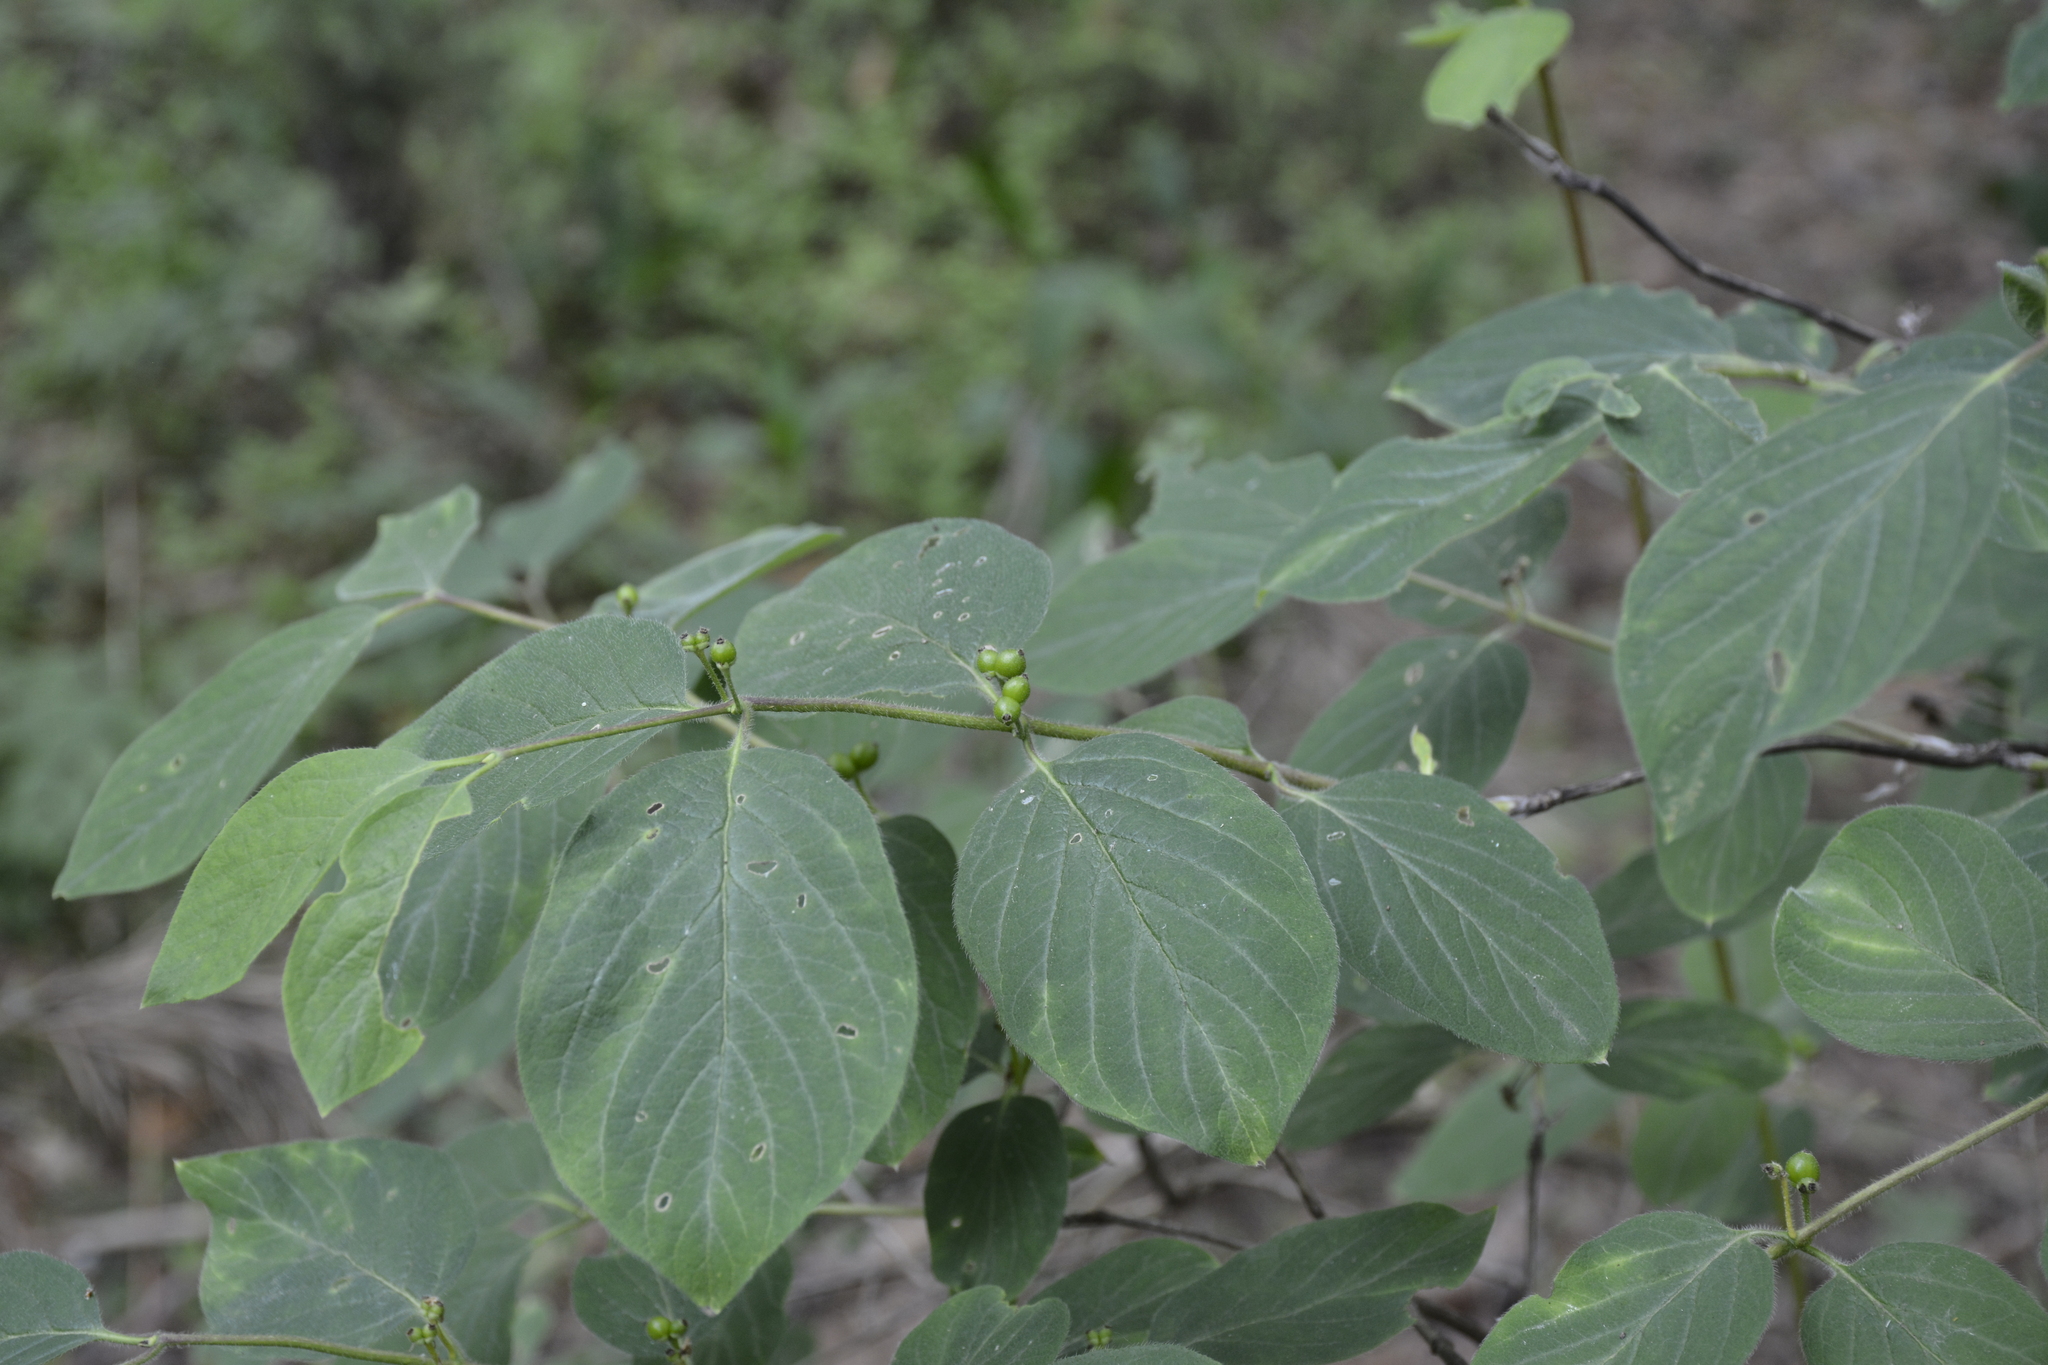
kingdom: Plantae
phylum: Tracheophyta
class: Magnoliopsida
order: Dipsacales
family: Caprifoliaceae
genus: Lonicera
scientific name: Lonicera xylosteum
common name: Fly honeysuckle
